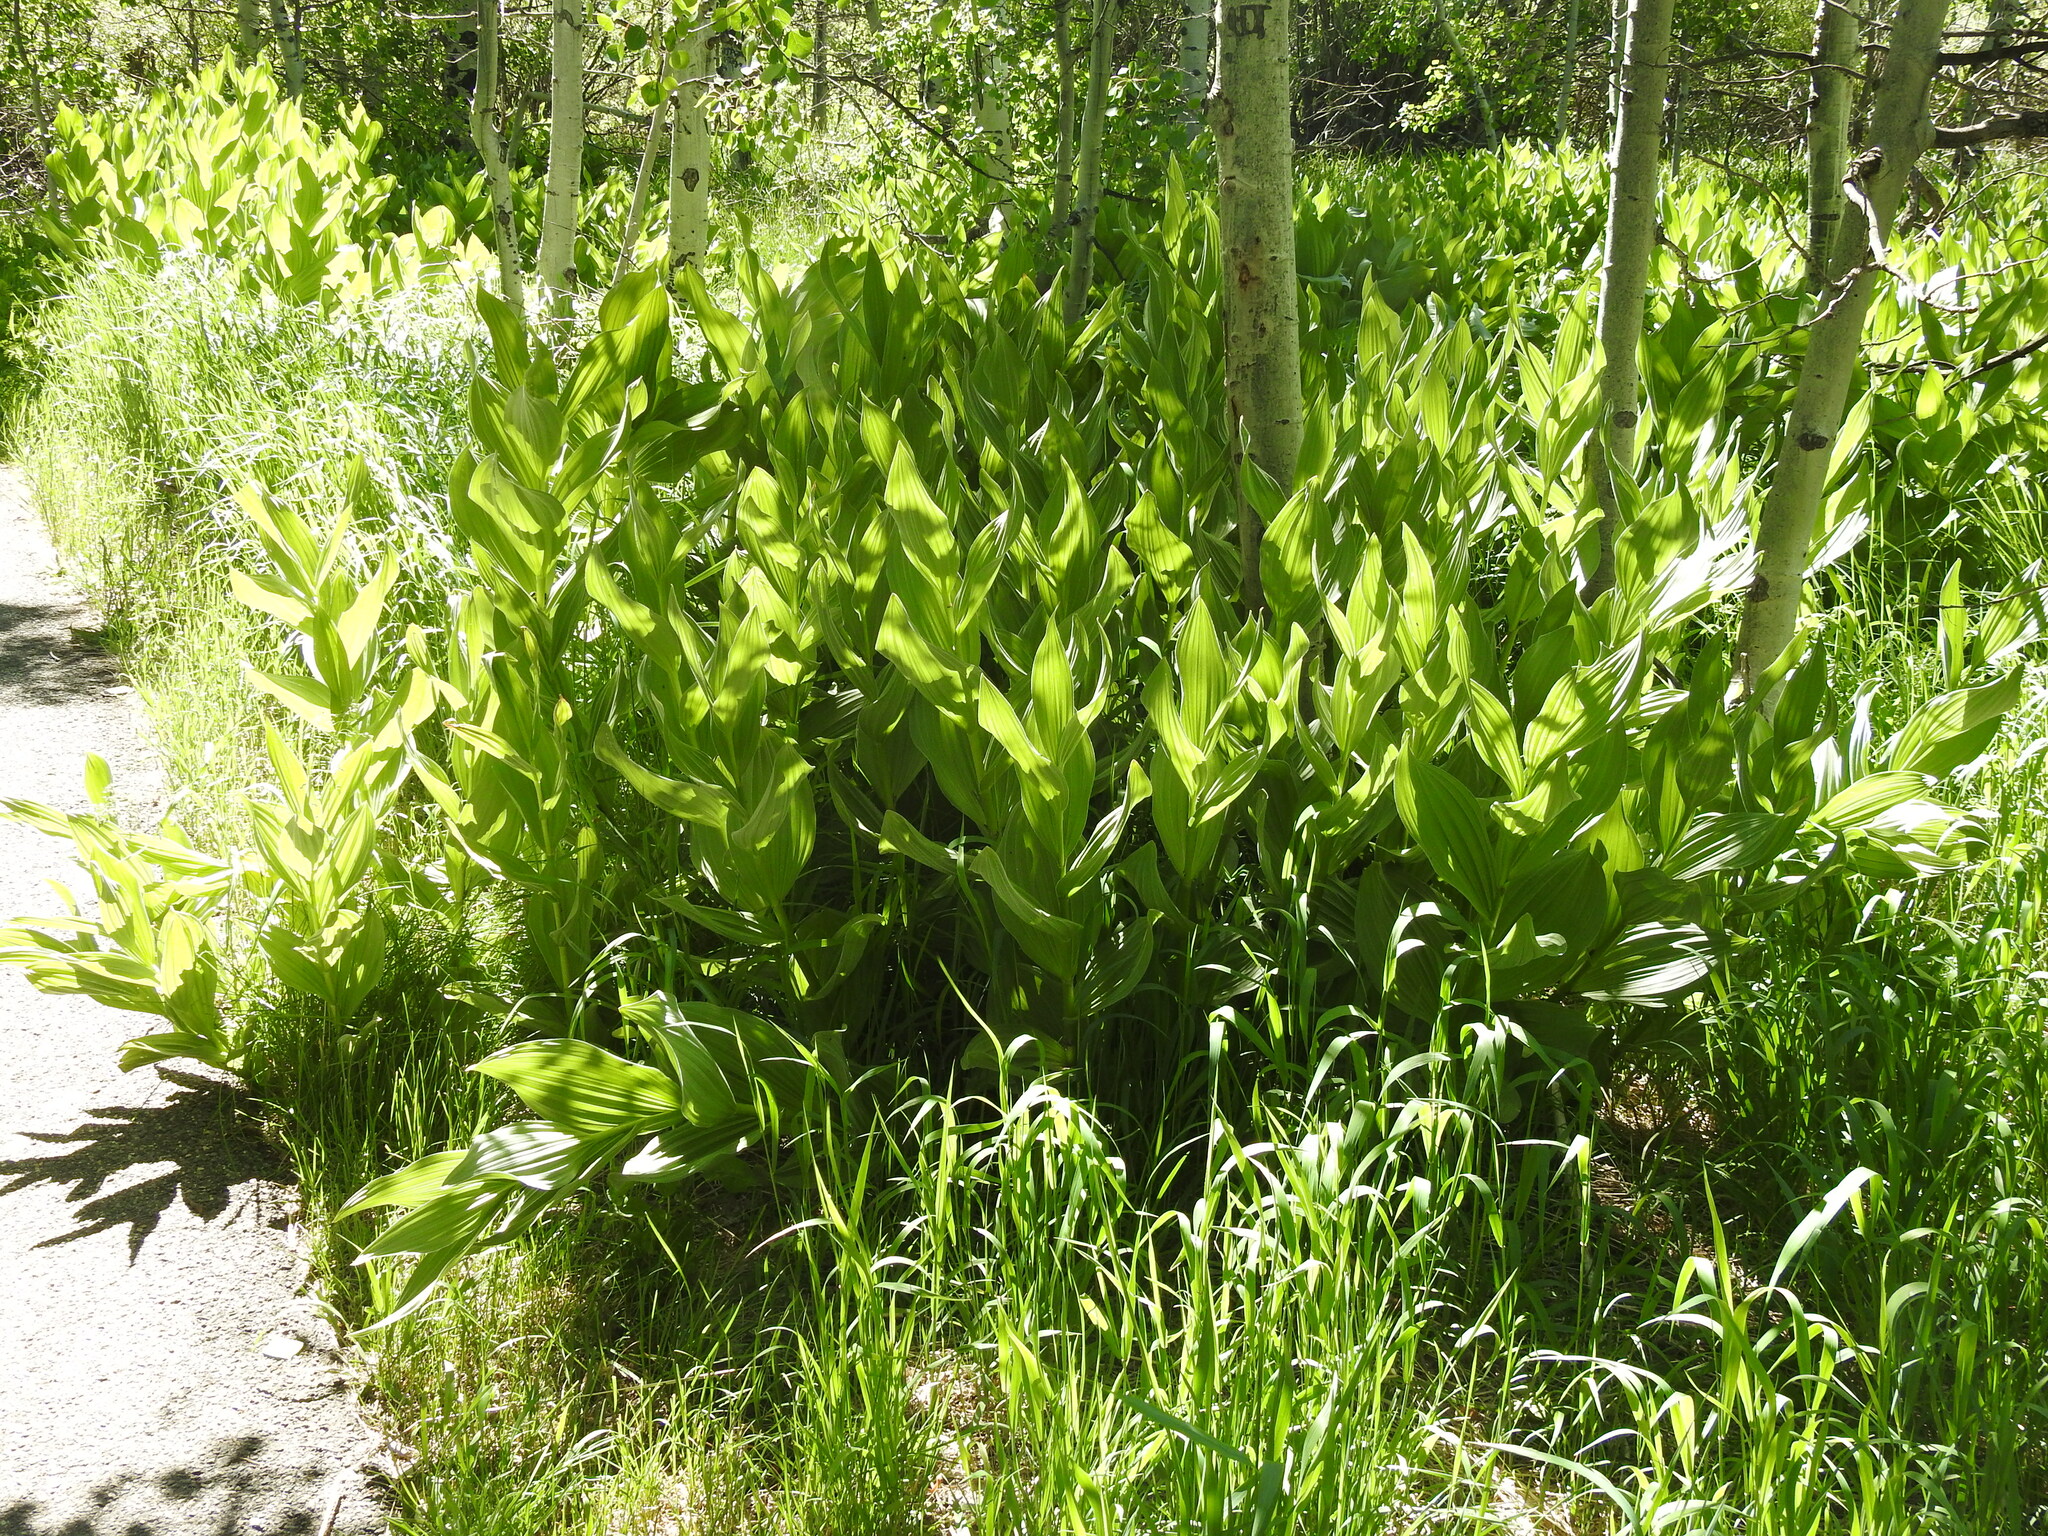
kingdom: Plantae
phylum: Tracheophyta
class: Liliopsida
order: Liliales
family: Melanthiaceae
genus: Veratrum
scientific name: Veratrum californicum
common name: California veratrum
